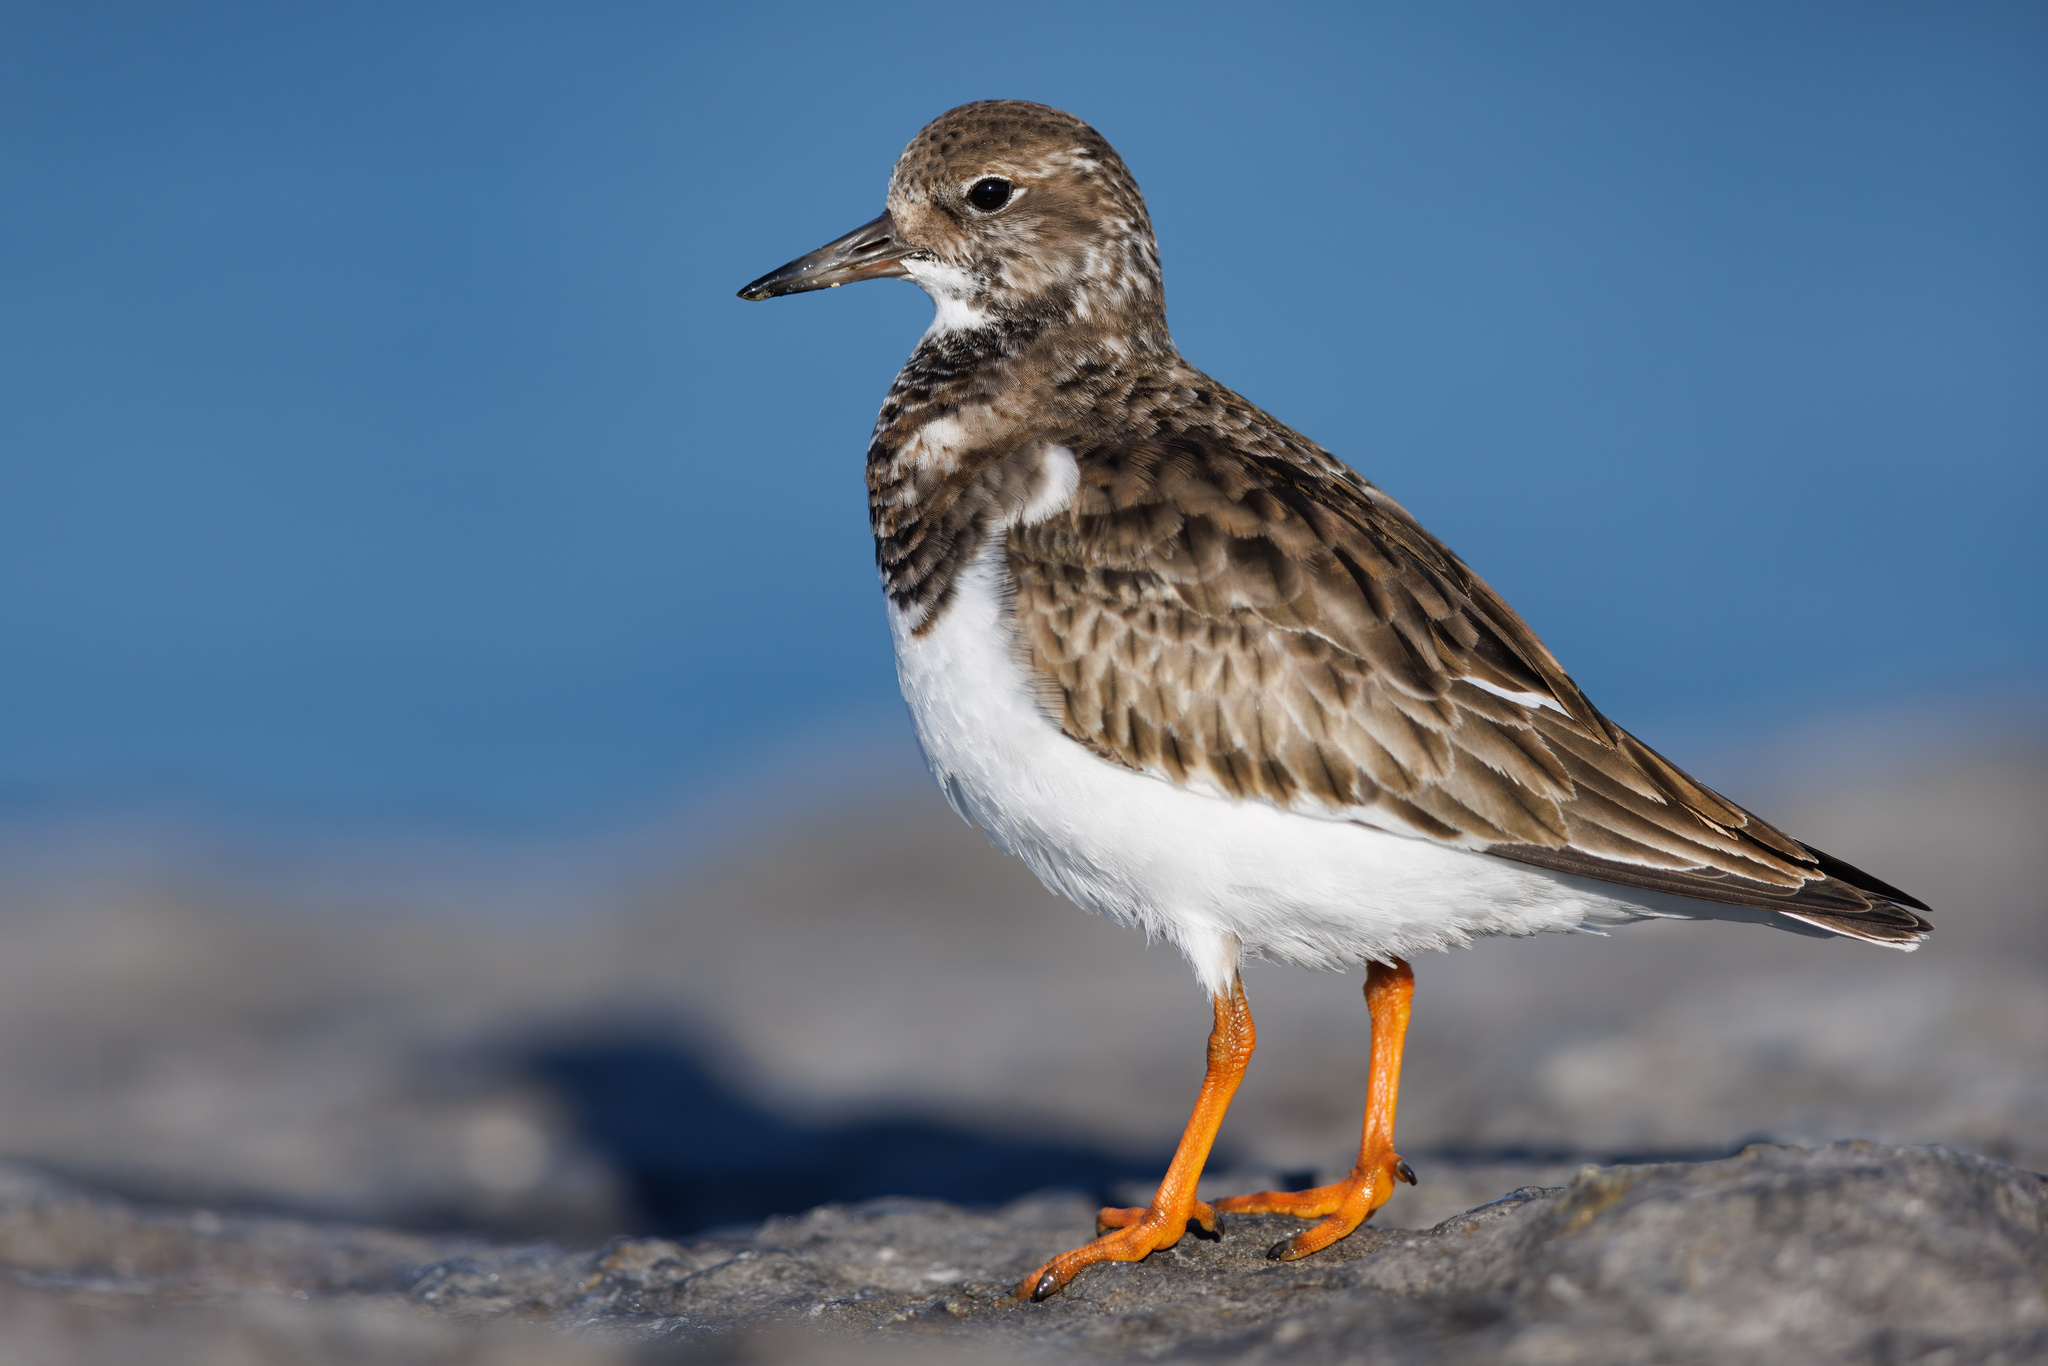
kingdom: Animalia
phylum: Chordata
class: Aves
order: Charadriiformes
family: Scolopacidae
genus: Arenaria
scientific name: Arenaria interpres
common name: Ruddy turnstone
